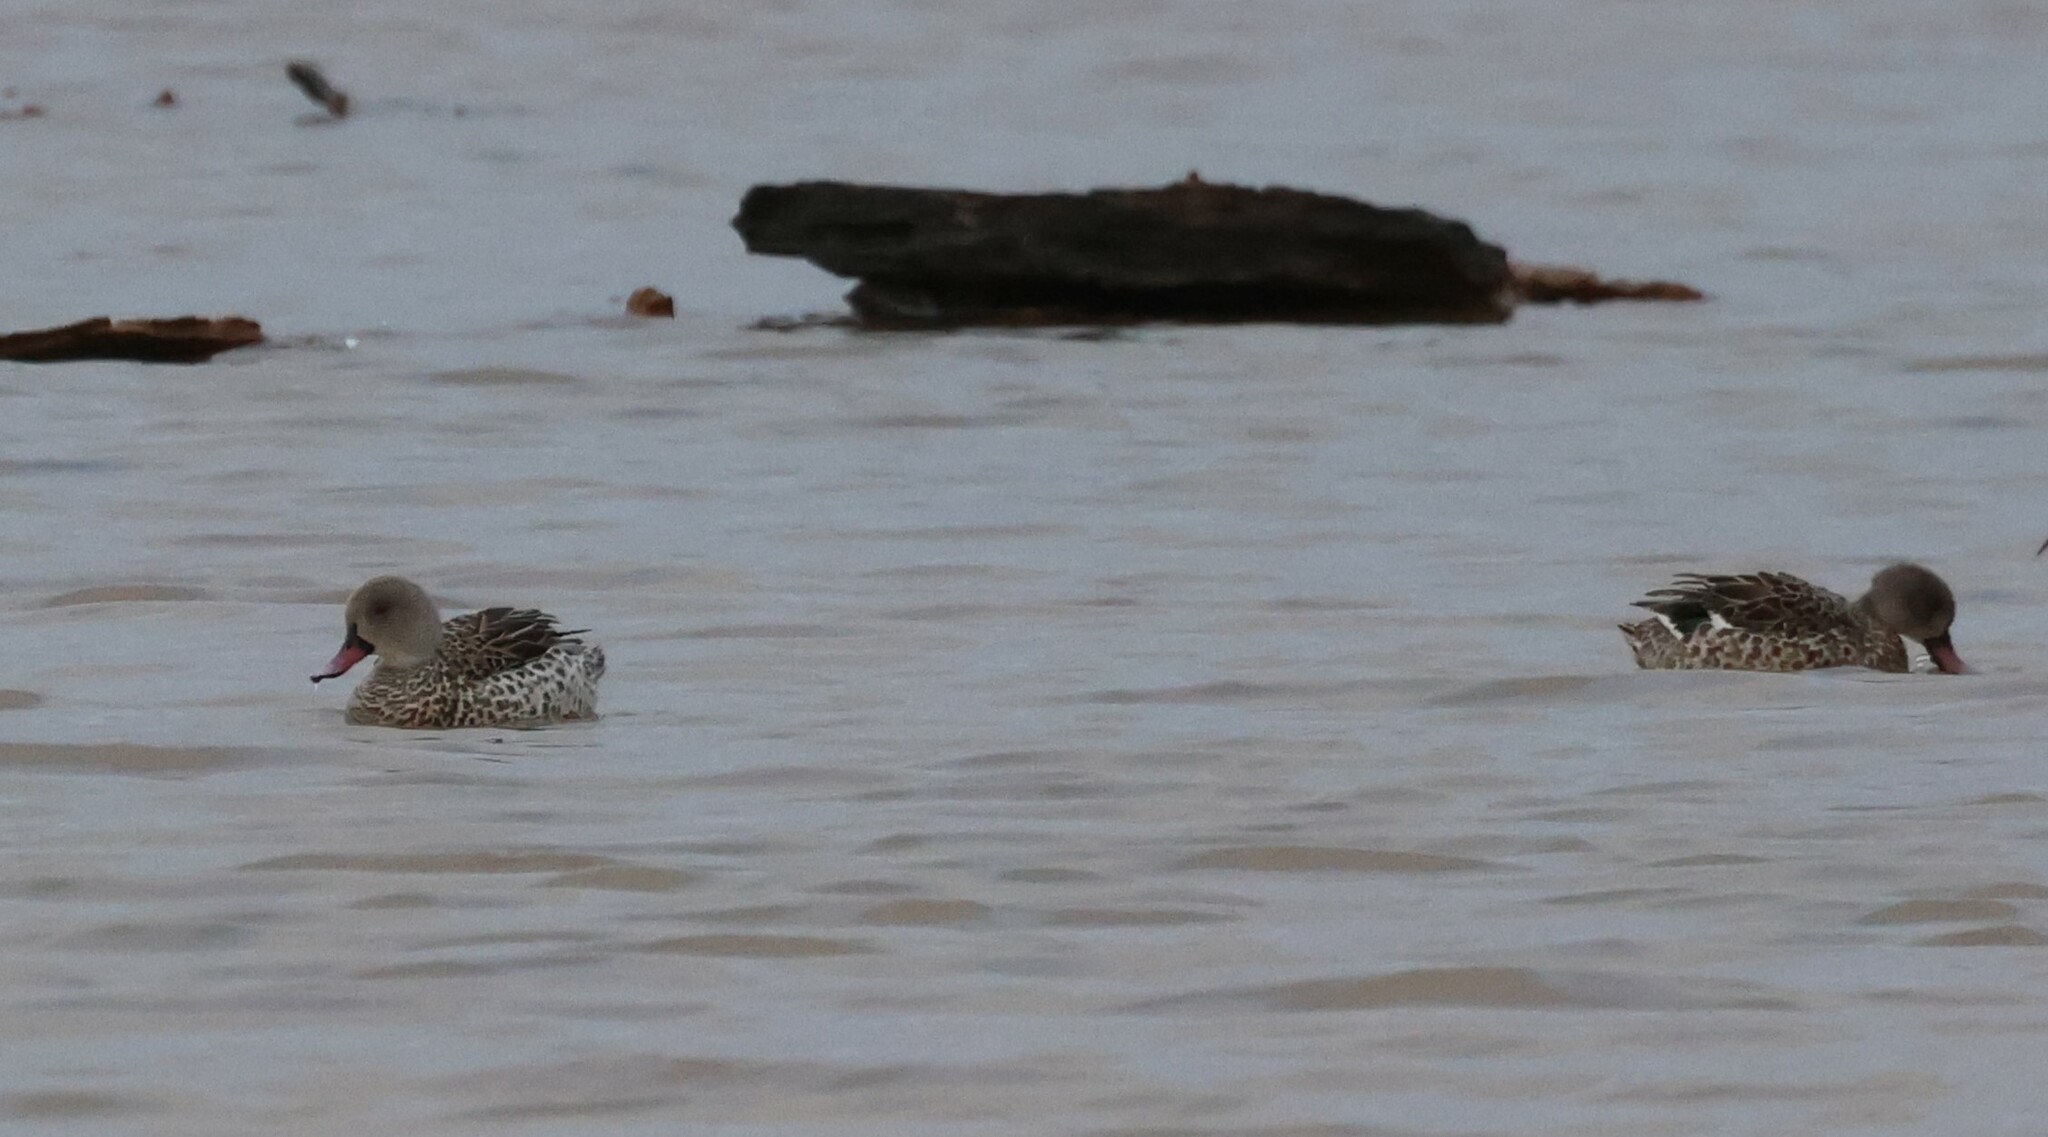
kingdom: Animalia
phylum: Chordata
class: Aves
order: Anseriformes
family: Anatidae
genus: Anas
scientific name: Anas capensis
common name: Cape teal
